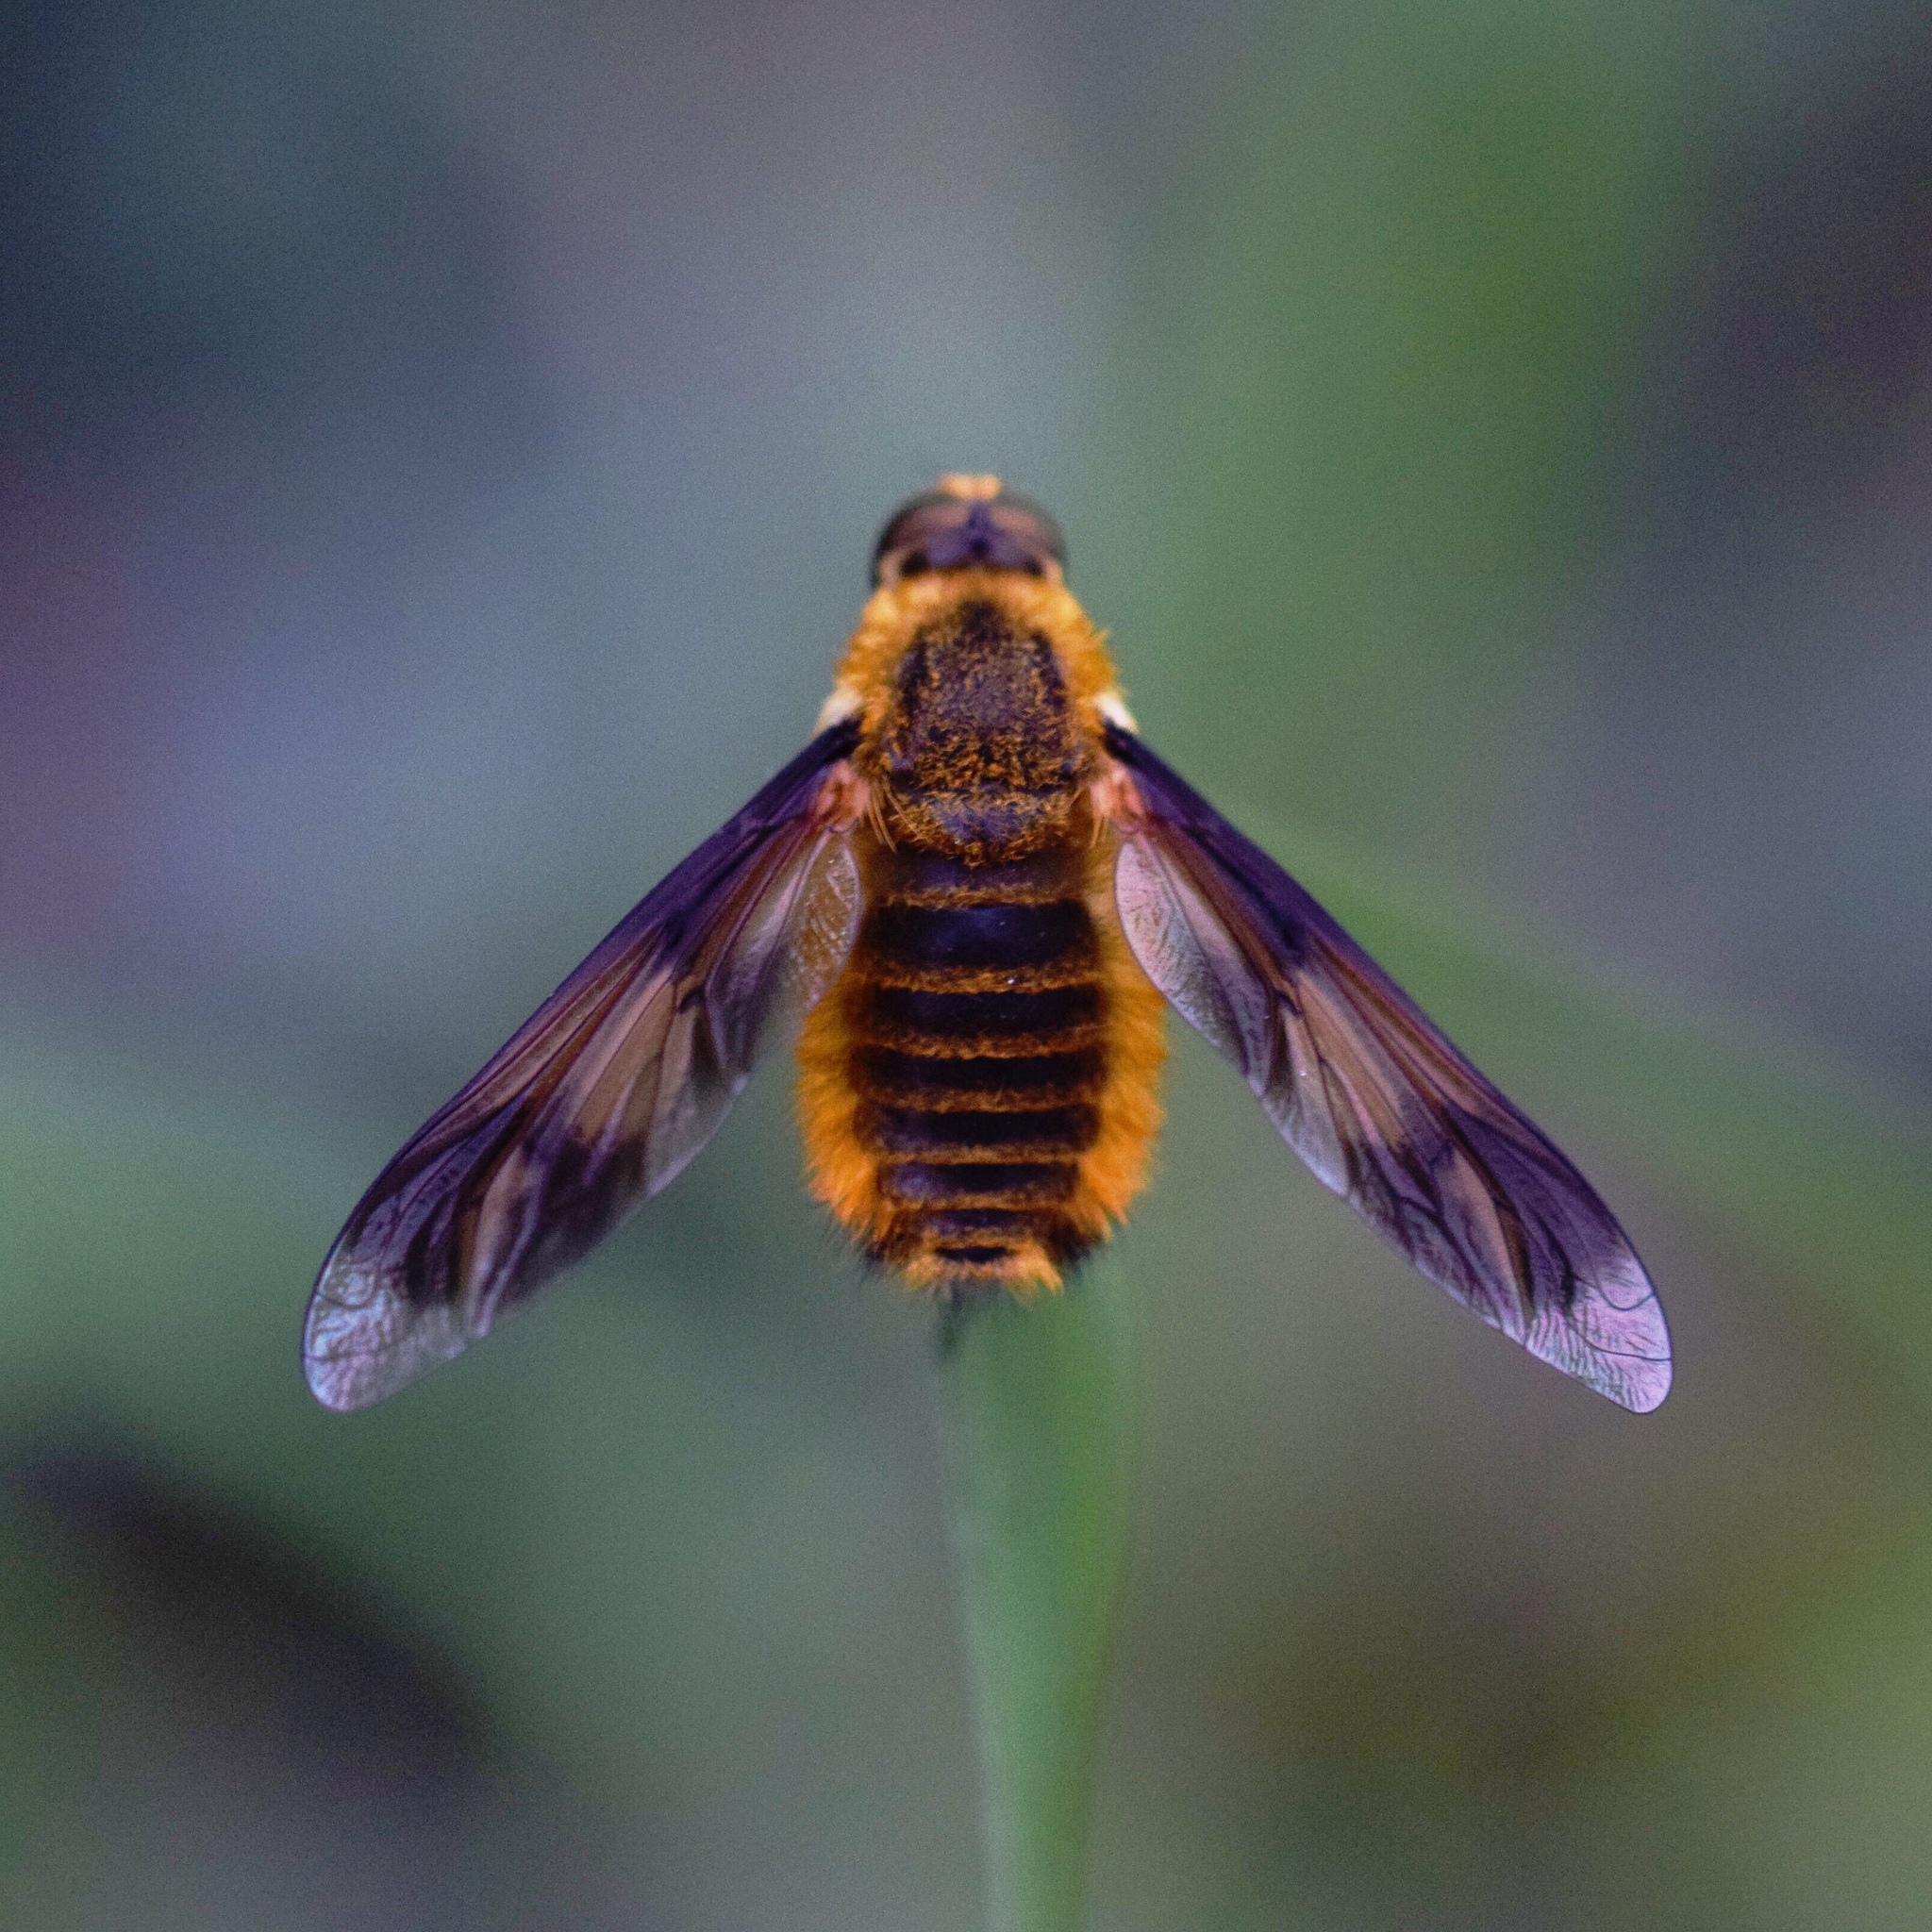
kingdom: Animalia
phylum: Arthropoda
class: Insecta
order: Diptera
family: Bombyliidae
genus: Notolomatia
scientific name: Notolomatia pictipennis
